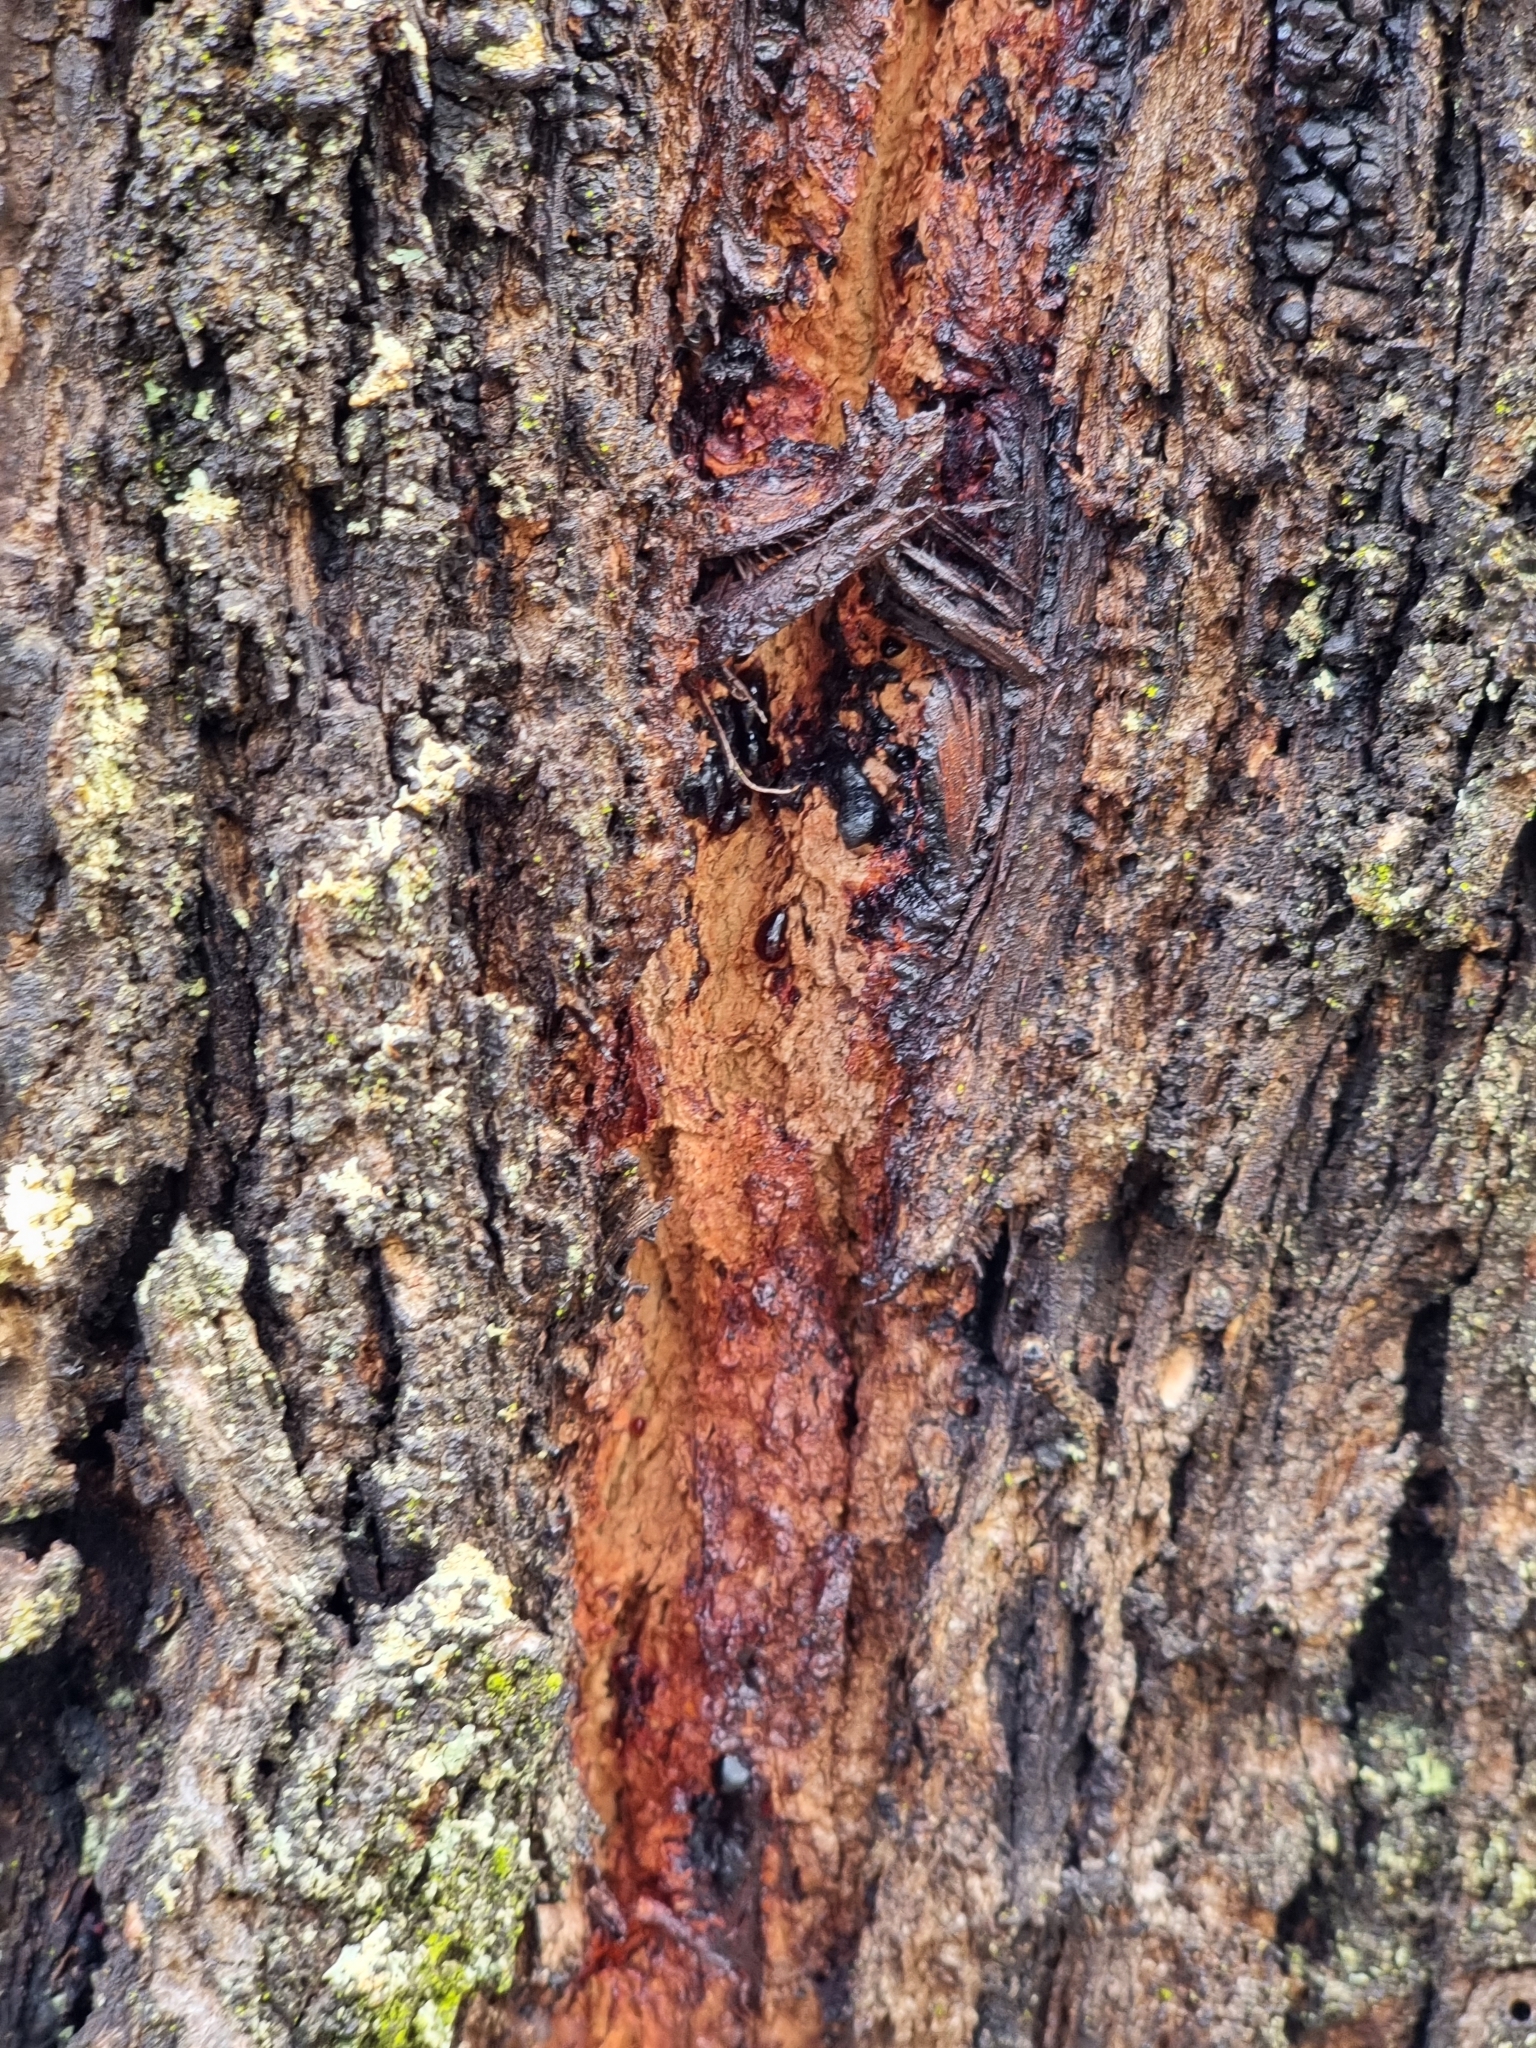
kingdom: Plantae
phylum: Tracheophyta
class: Magnoliopsida
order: Myrtales
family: Myrtaceae
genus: Eucalyptus
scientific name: Eucalyptus siderophloia
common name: Broad-leafed-ironbark
